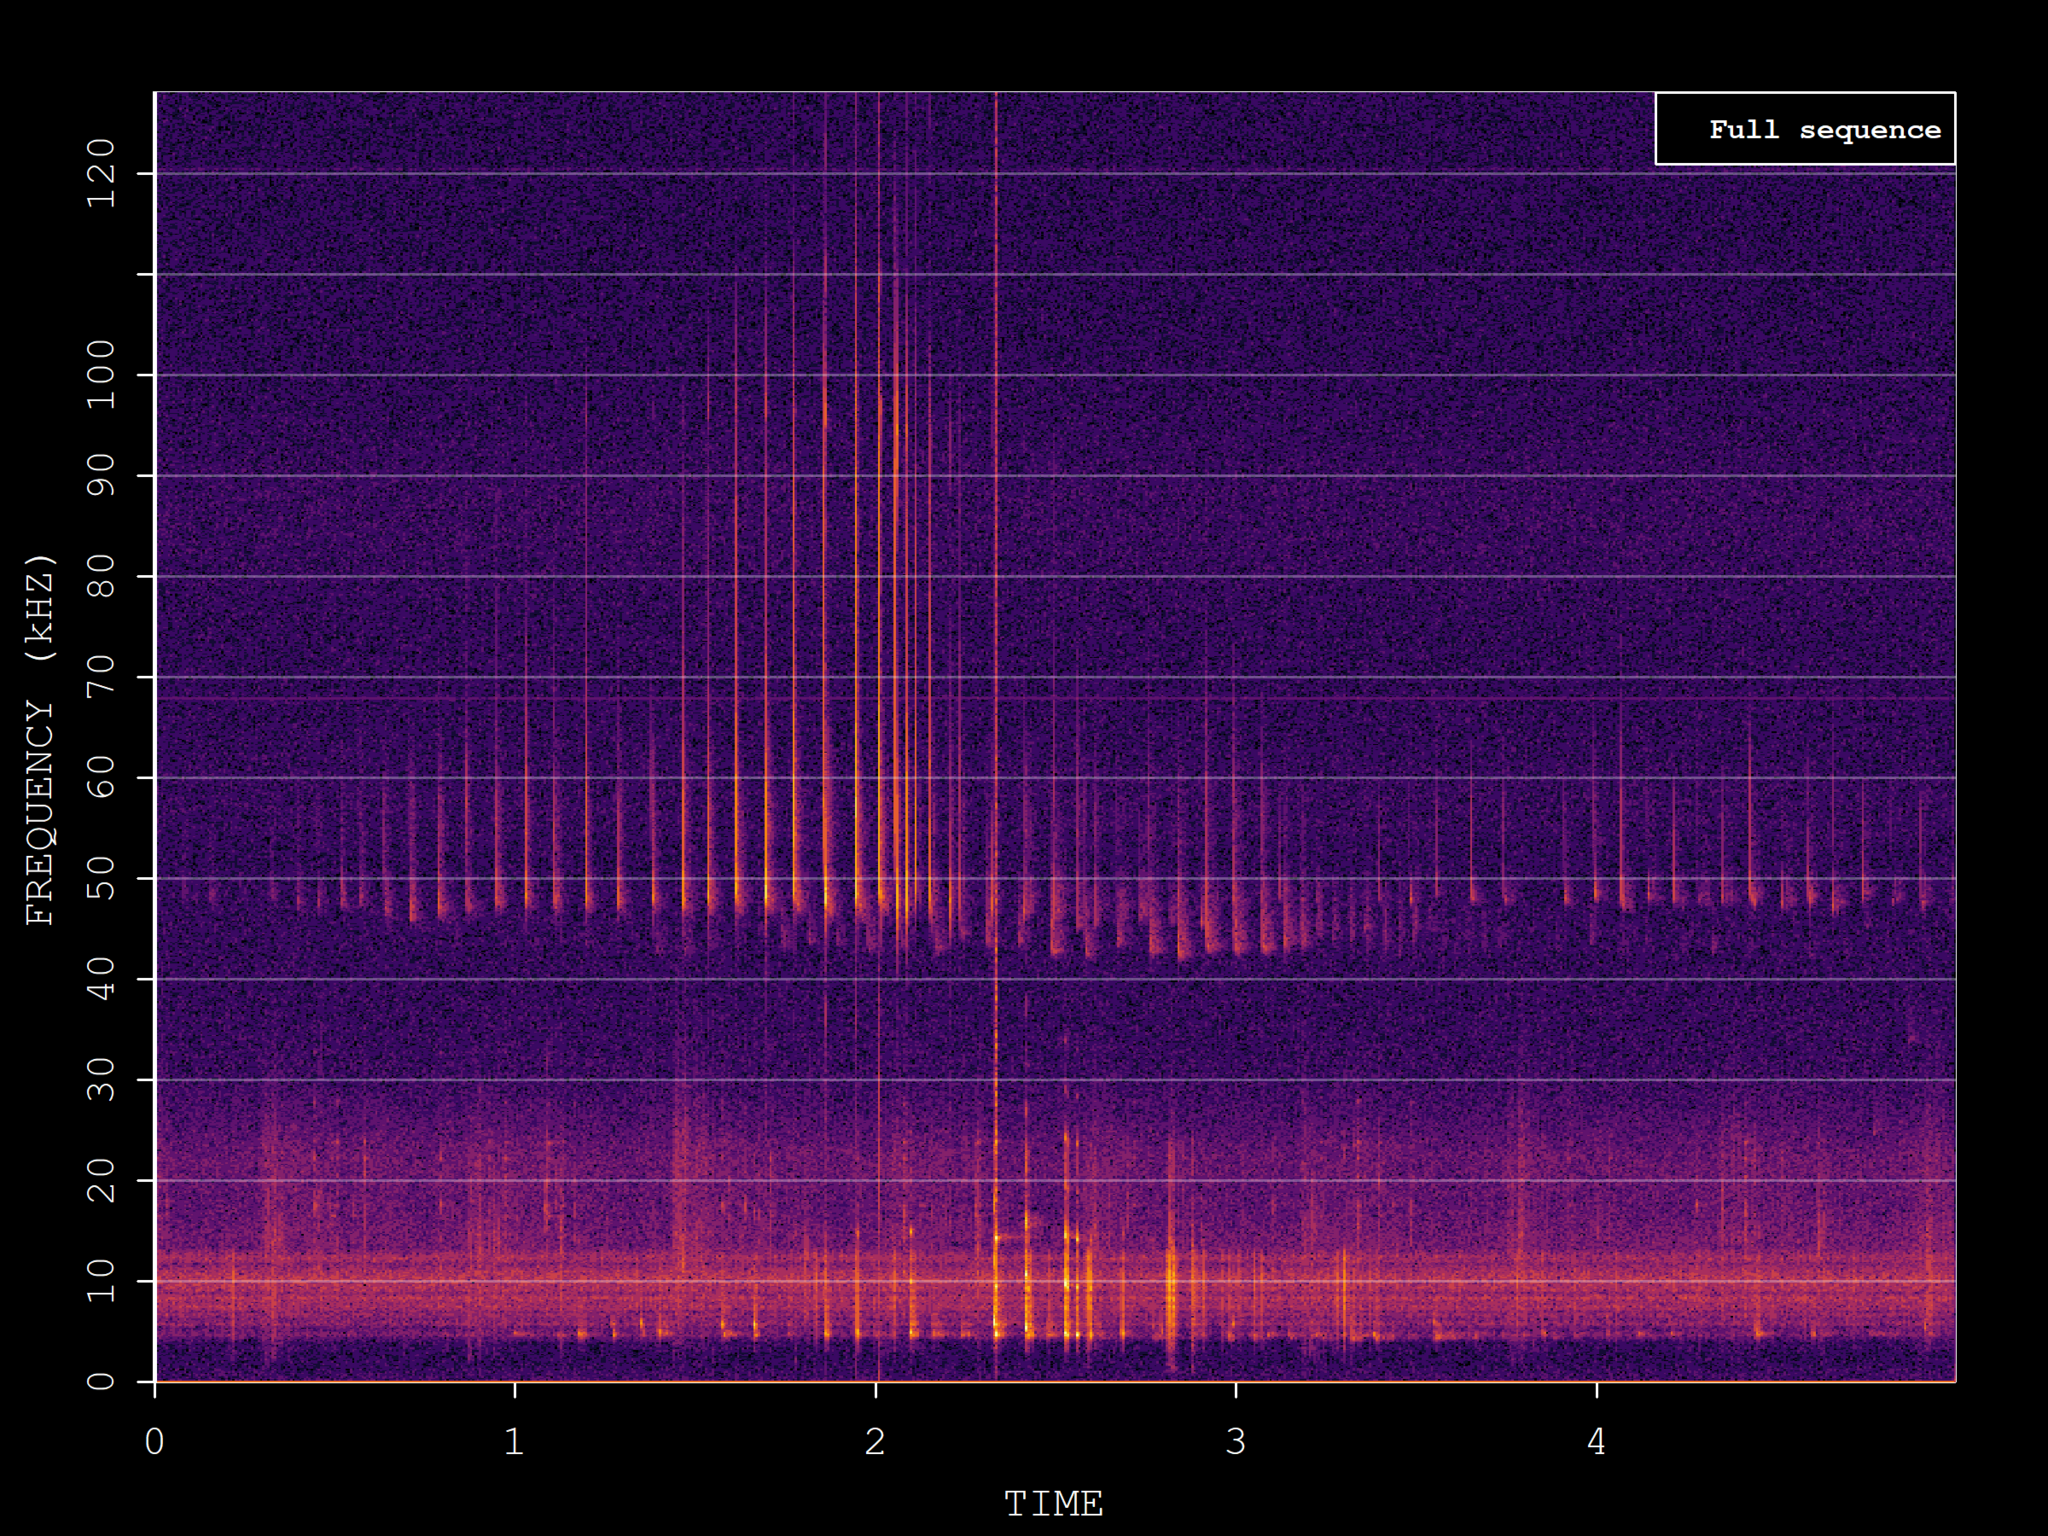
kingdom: Animalia
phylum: Chordata
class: Mammalia
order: Chiroptera
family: Vespertilionidae
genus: Pipistrellus
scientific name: Pipistrellus pipistrellus
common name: Common pipistrelle
